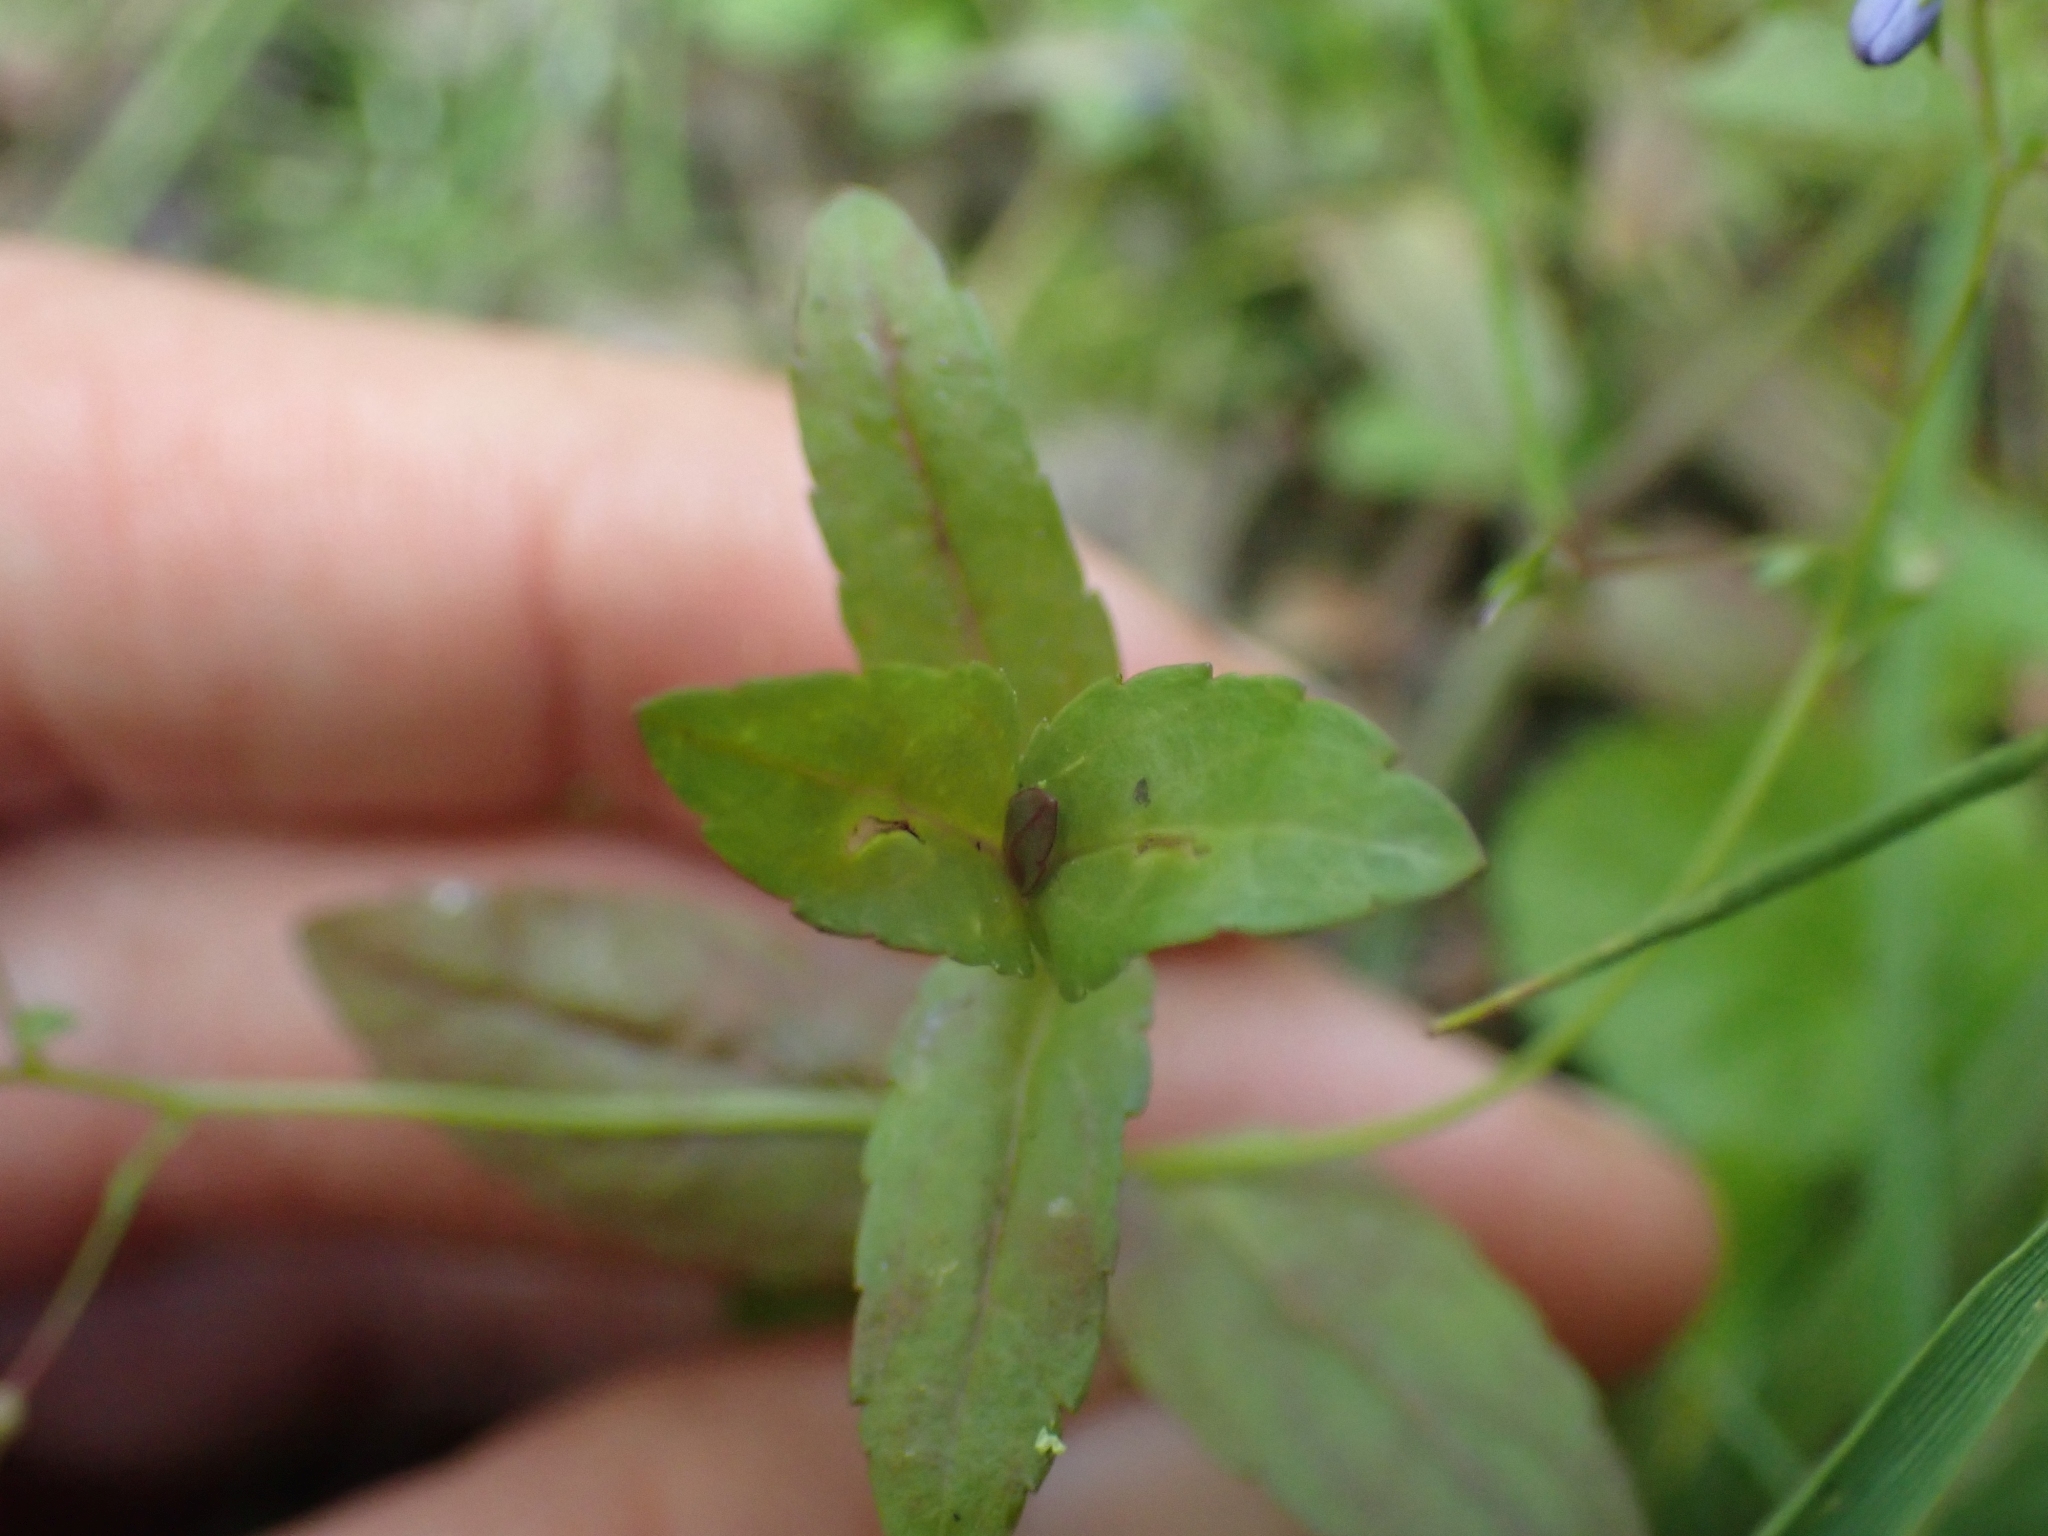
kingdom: Plantae
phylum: Tracheophyta
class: Magnoliopsida
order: Lamiales
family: Plantaginaceae
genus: Veronica
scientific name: Veronica americana
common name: American brooklime
